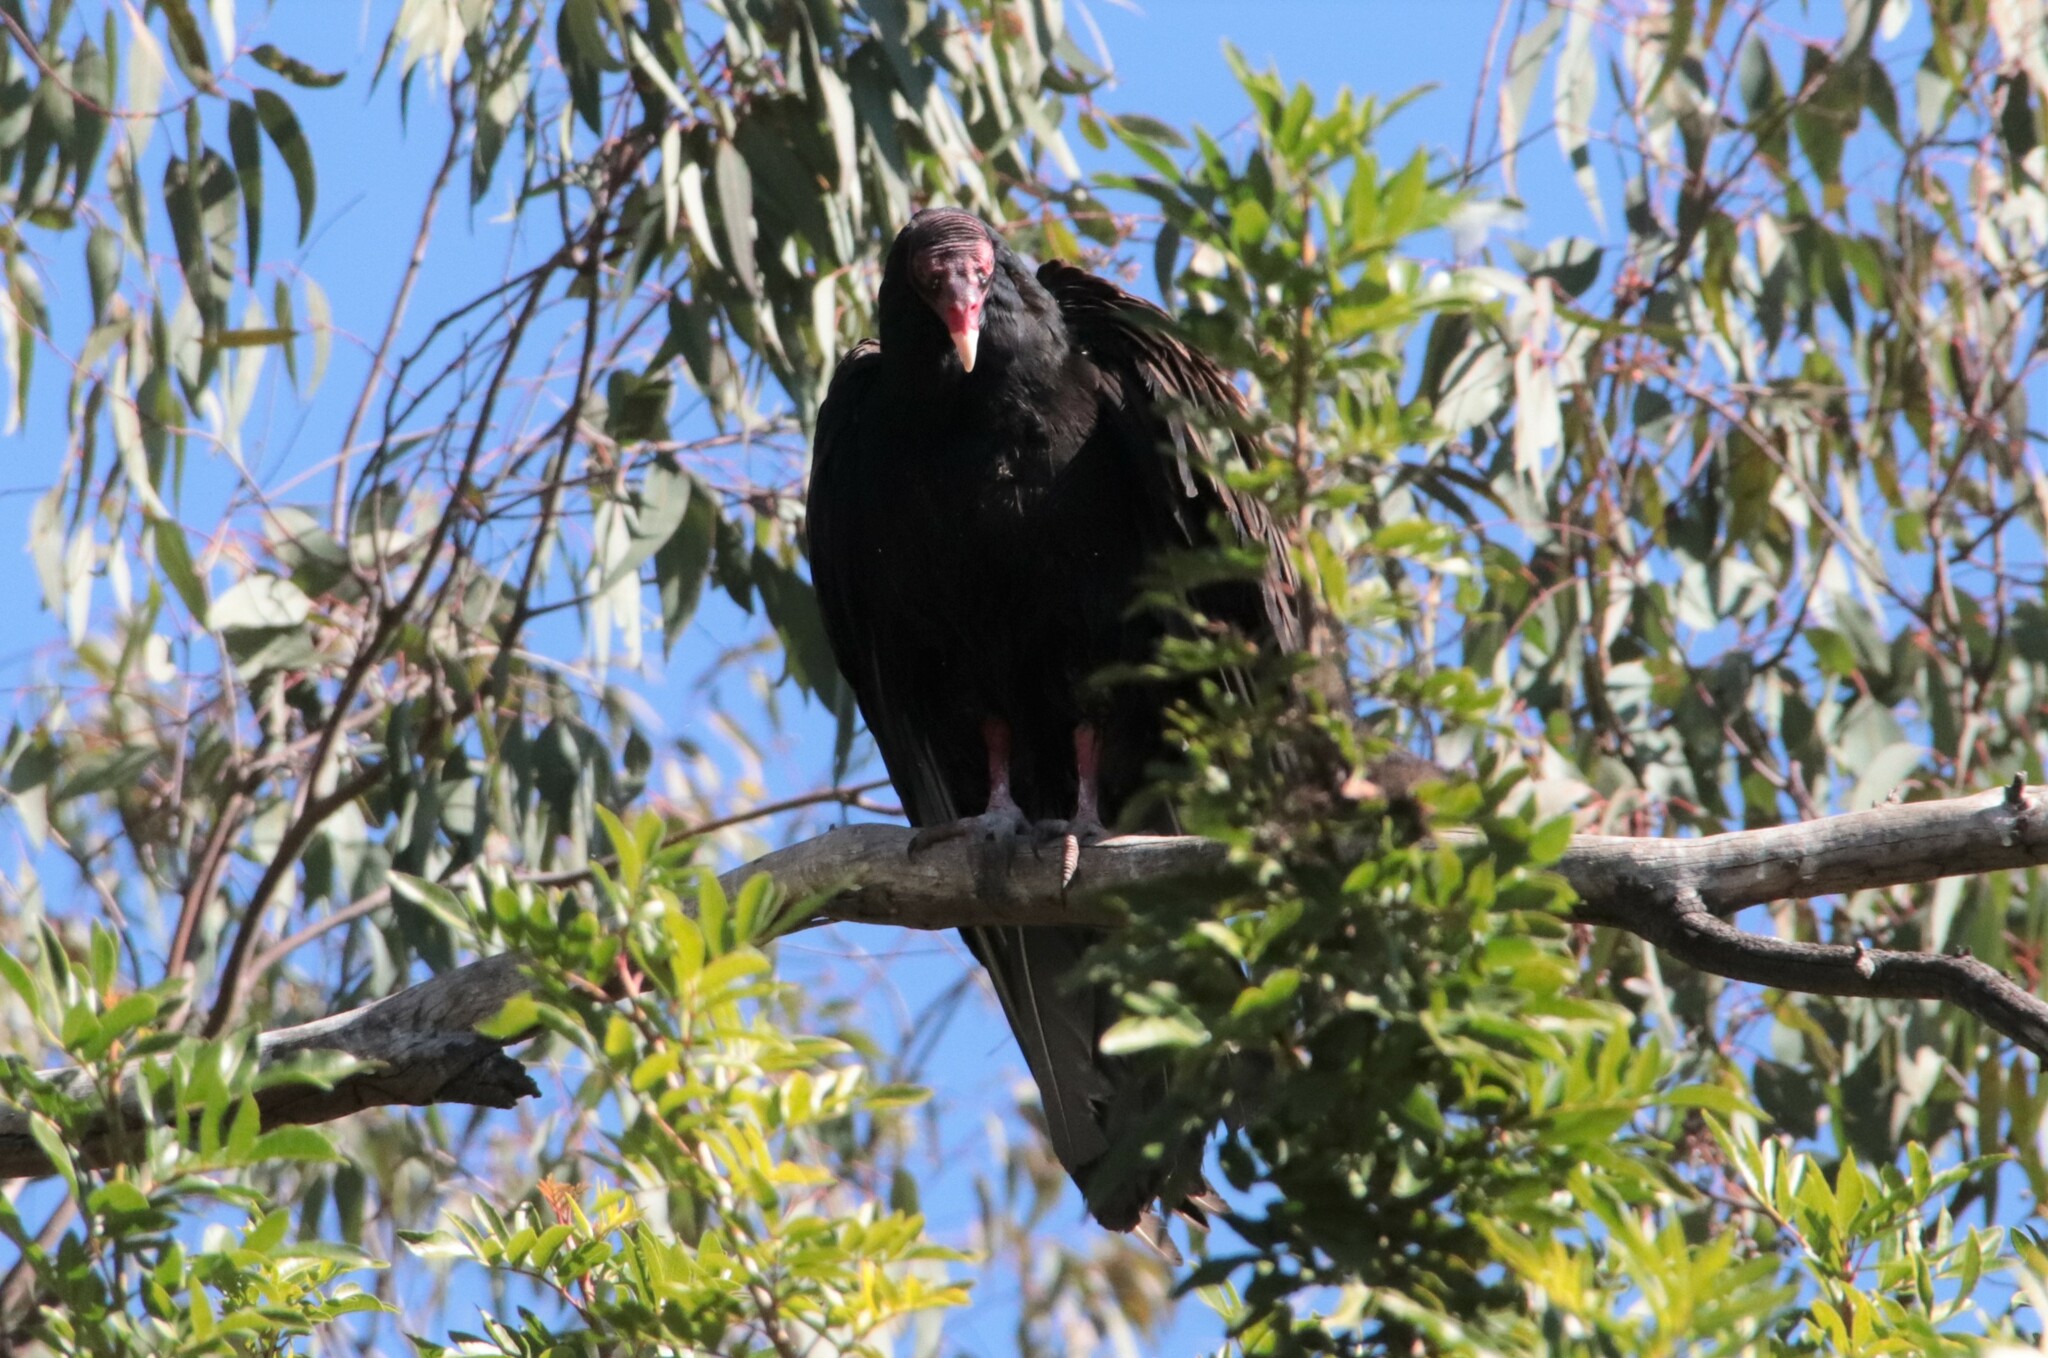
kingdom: Animalia
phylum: Chordata
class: Aves
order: Accipitriformes
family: Cathartidae
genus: Cathartes
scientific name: Cathartes aura
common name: Turkey vulture
